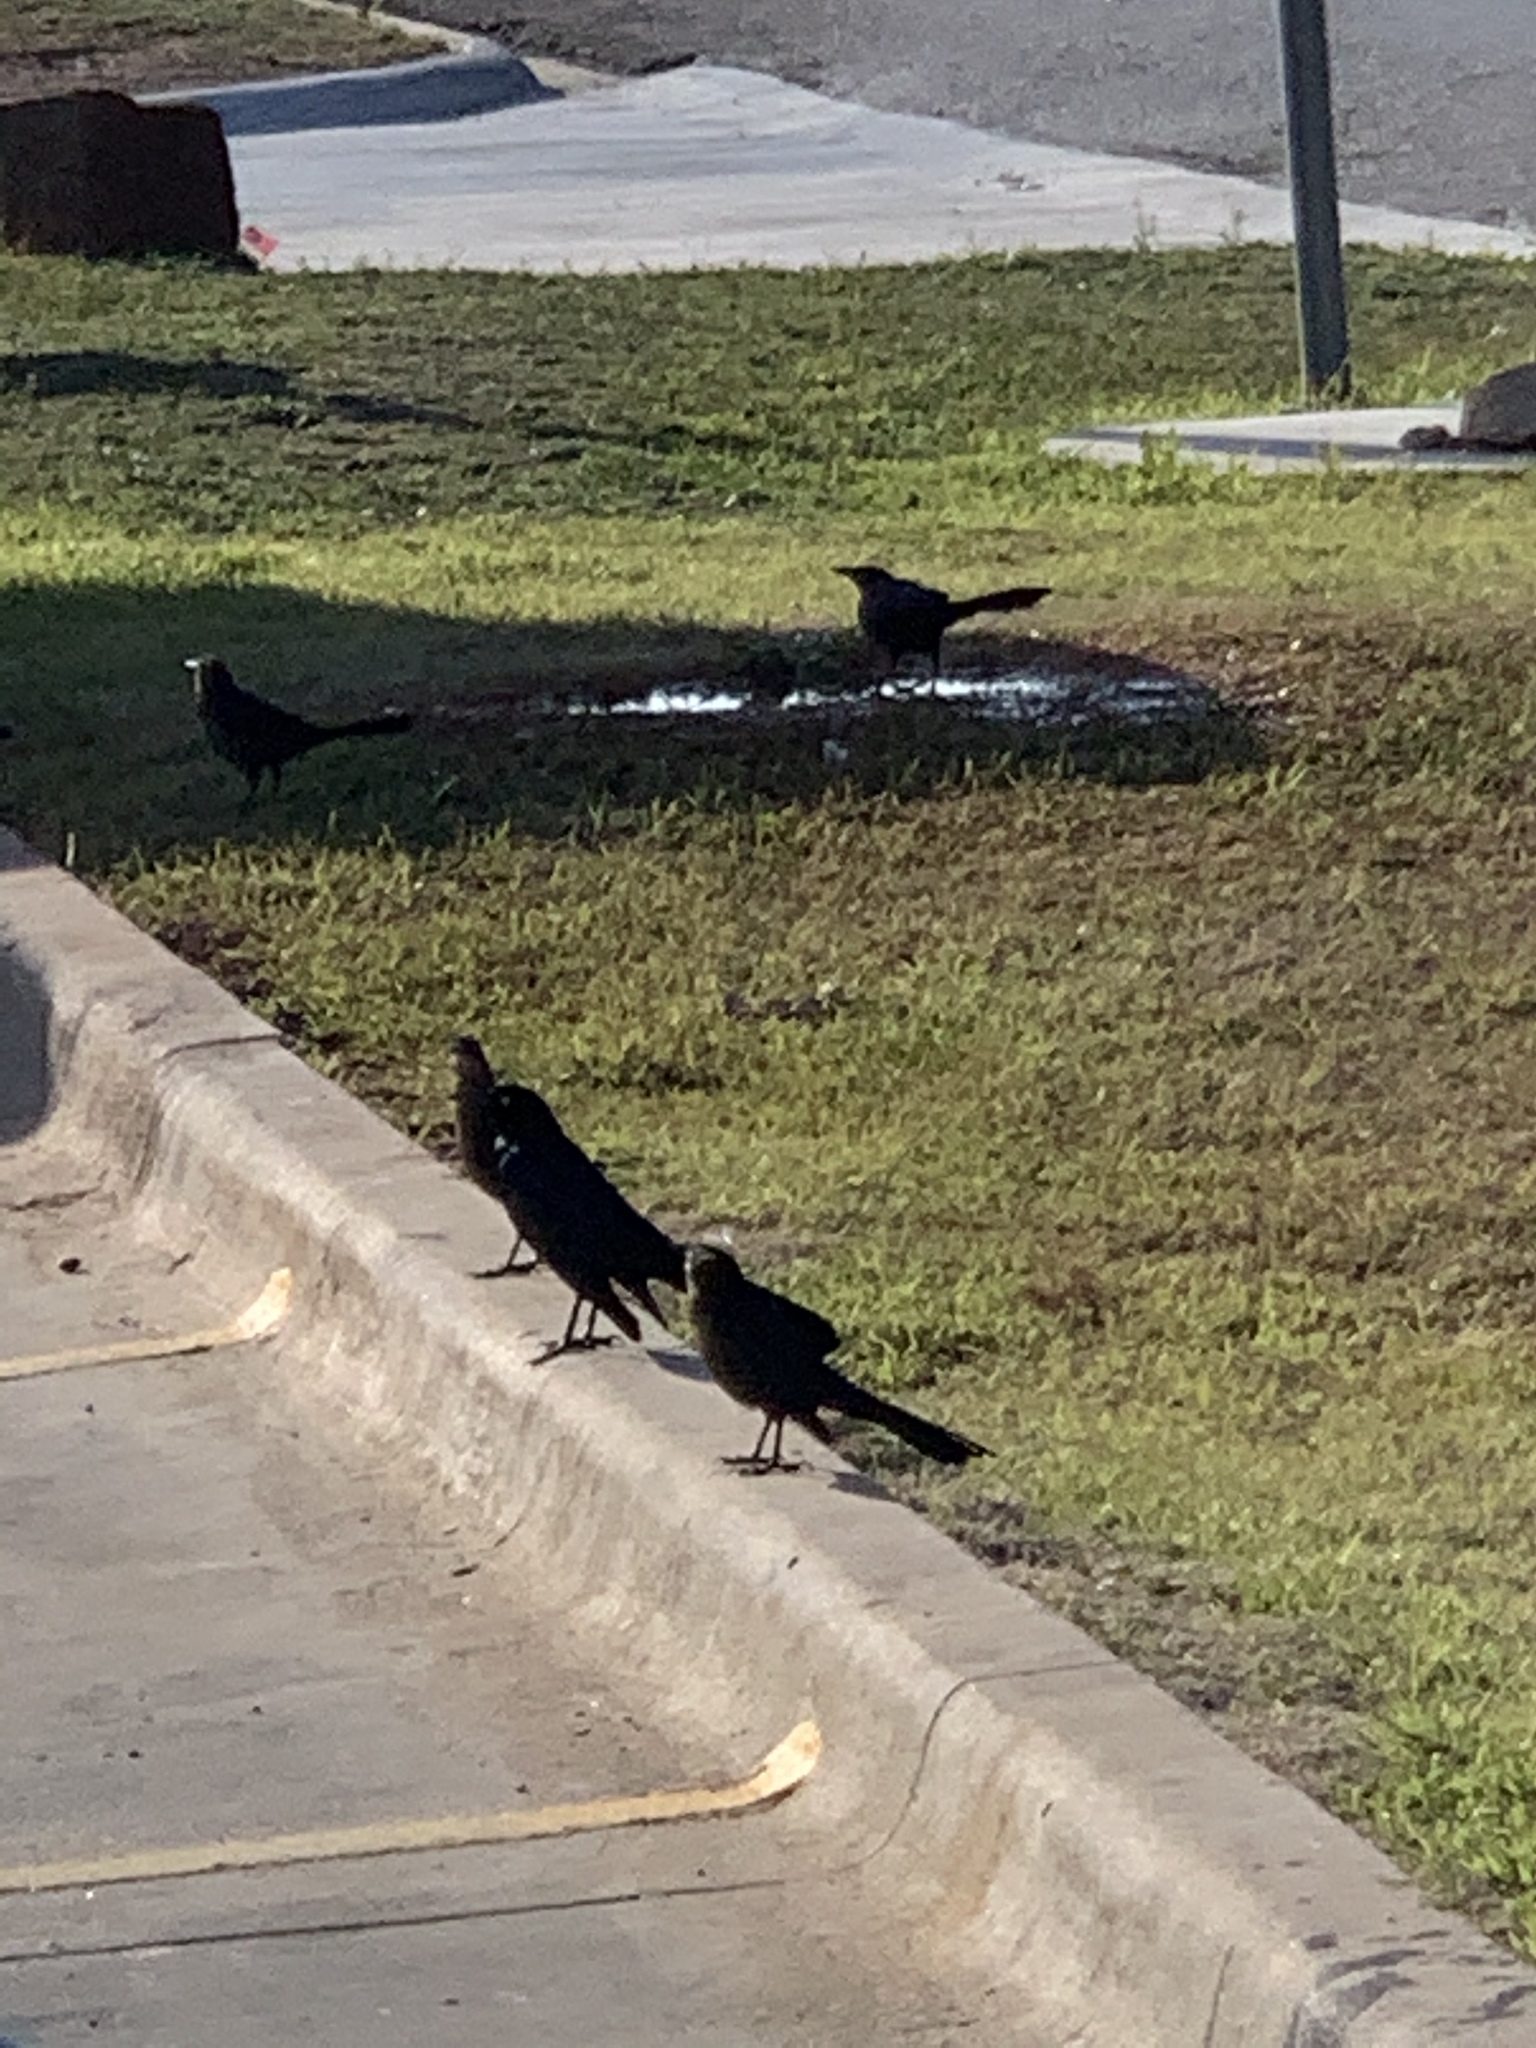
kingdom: Animalia
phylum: Chordata
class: Aves
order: Passeriformes
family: Icteridae
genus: Quiscalus
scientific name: Quiscalus mexicanus
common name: Great-tailed grackle
